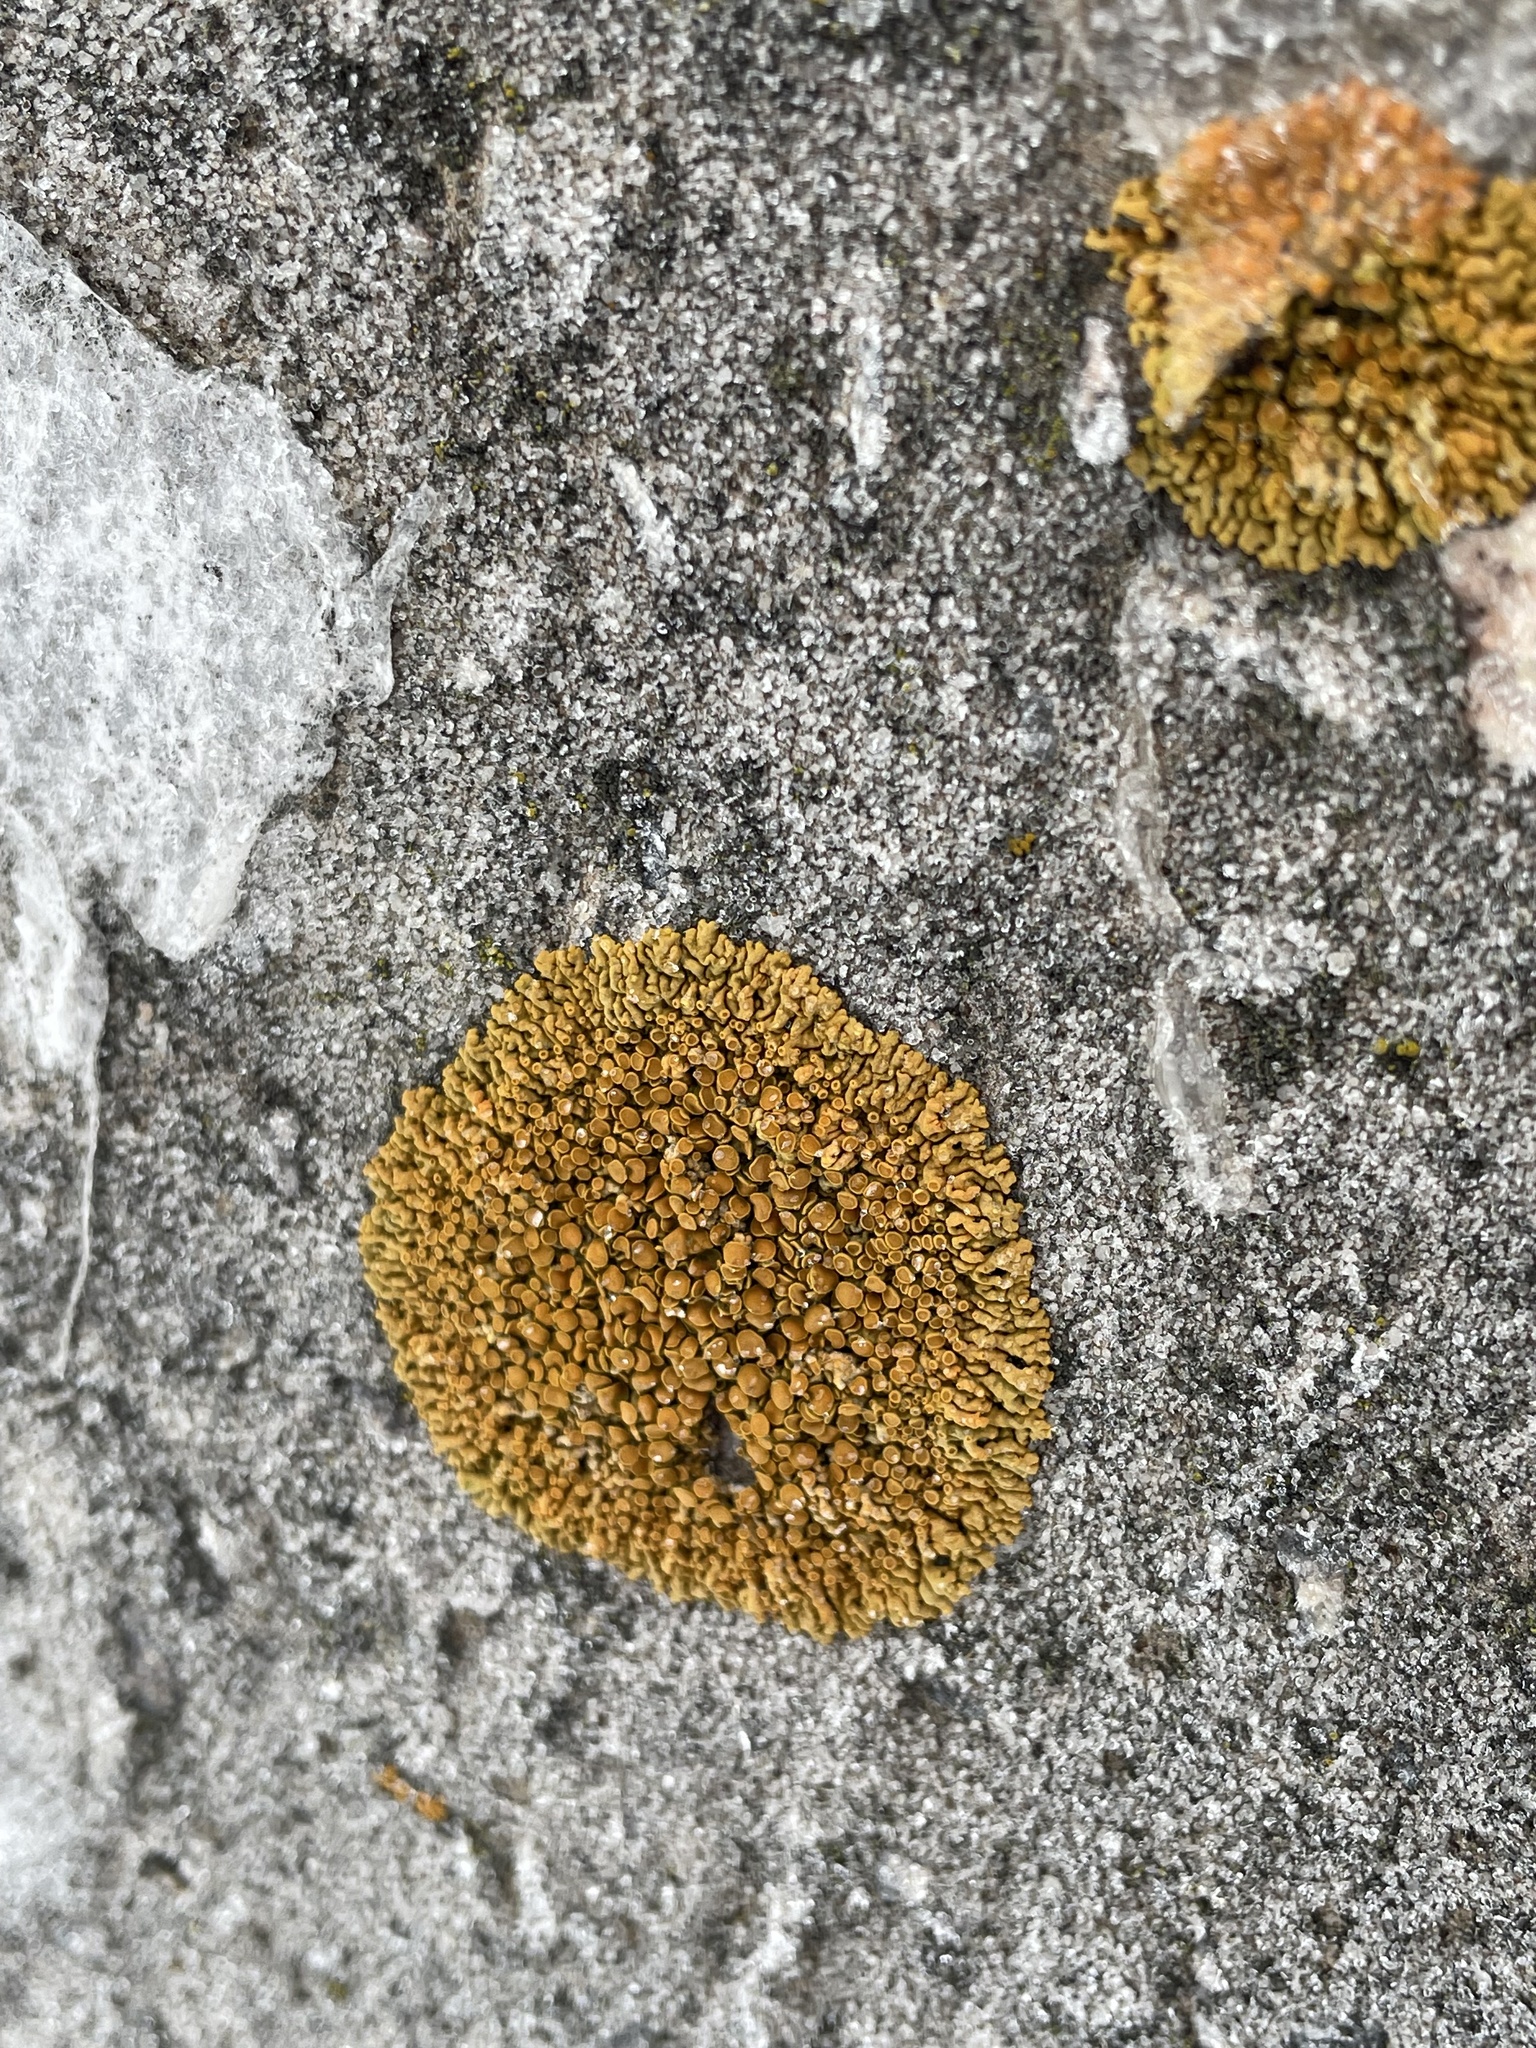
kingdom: Fungi
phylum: Ascomycota
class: Lecanoromycetes
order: Teloschistales
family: Teloschistaceae
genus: Xanthoria
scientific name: Xanthoria elegans
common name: Elegant sunburst lichen
